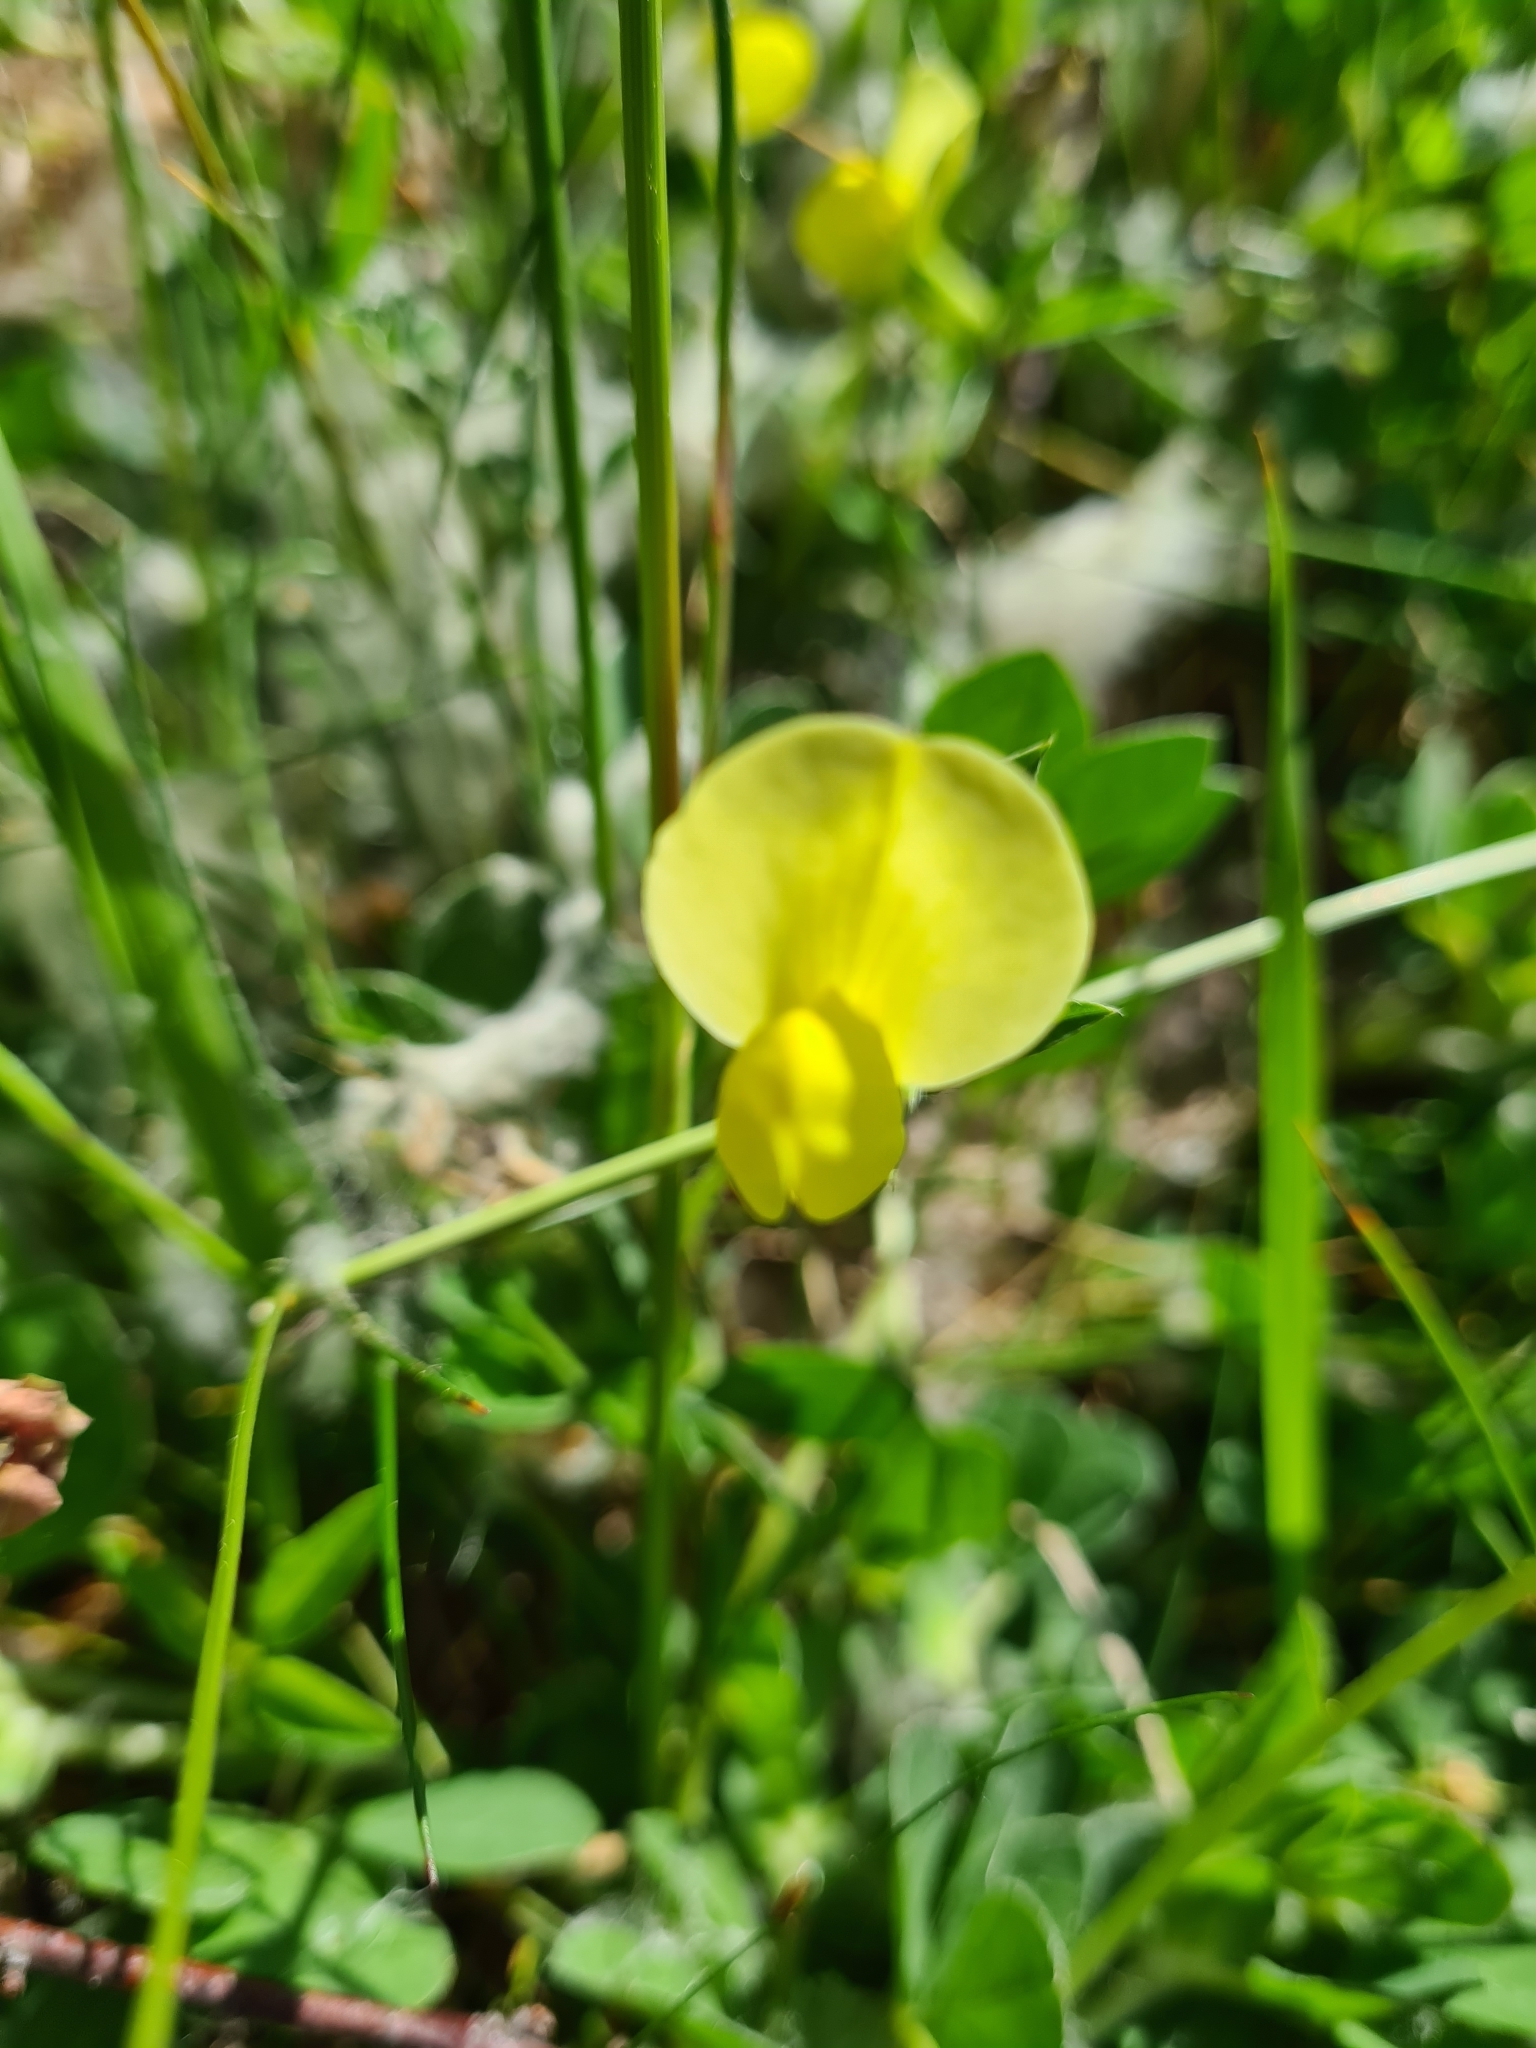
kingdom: Plantae
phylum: Tracheophyta
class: Magnoliopsida
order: Fabales
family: Fabaceae
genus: Lotus
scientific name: Lotus maritimus
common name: Dragon's-teeth
